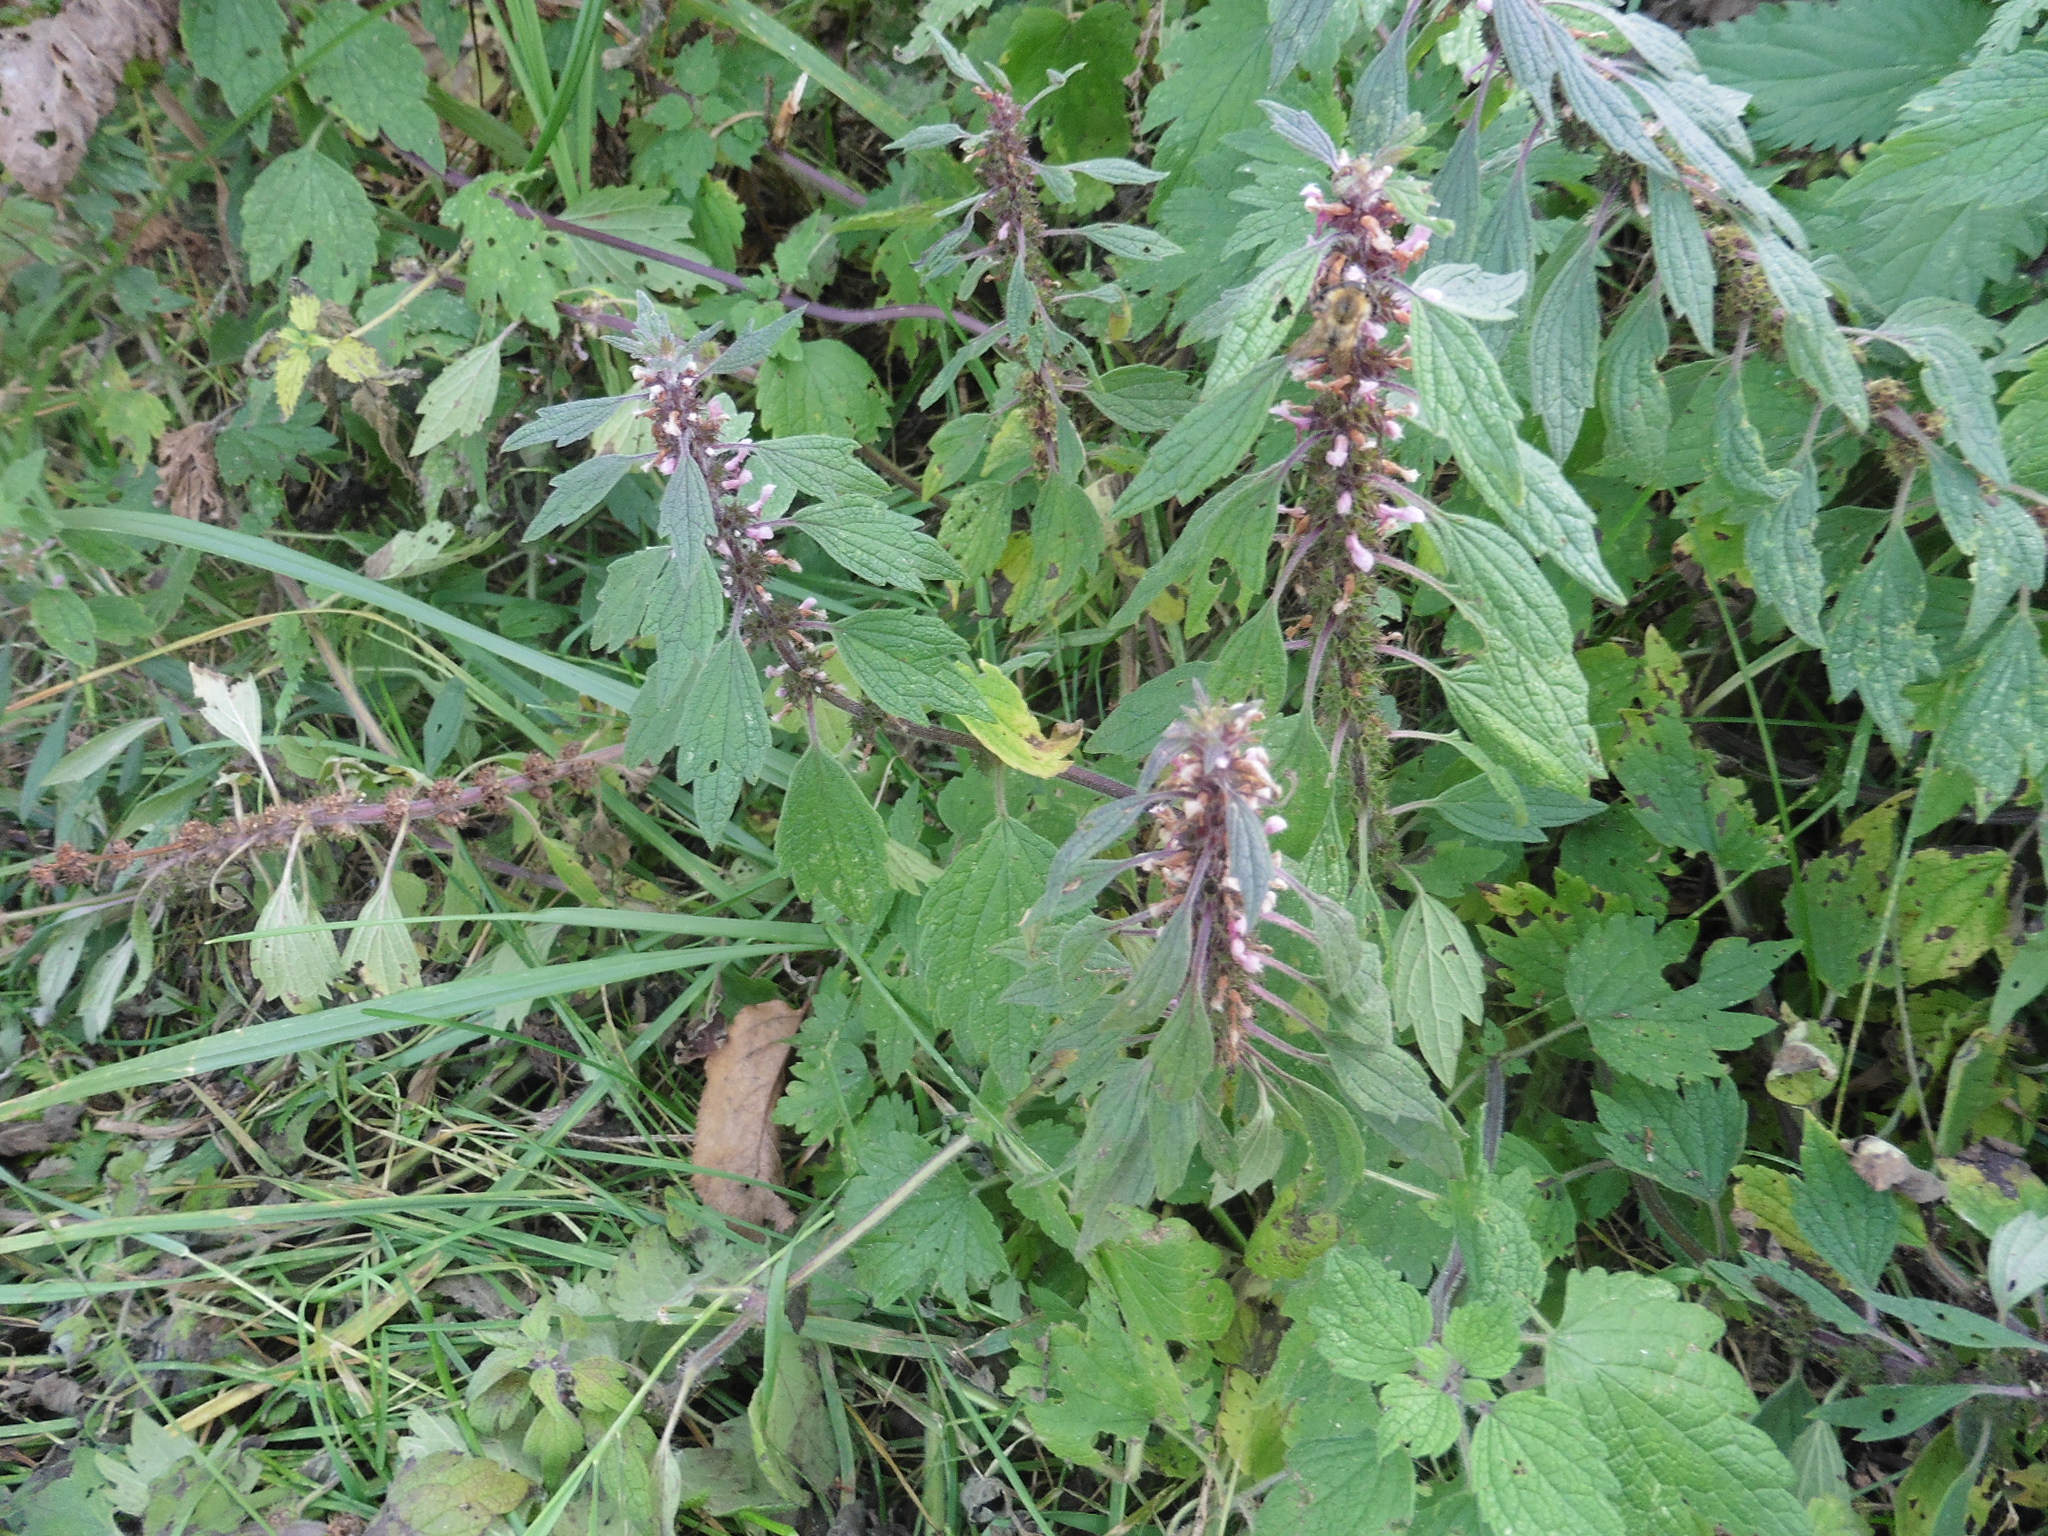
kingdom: Plantae
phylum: Tracheophyta
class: Magnoliopsida
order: Lamiales
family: Lamiaceae
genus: Leonurus
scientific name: Leonurus quinquelobatus
